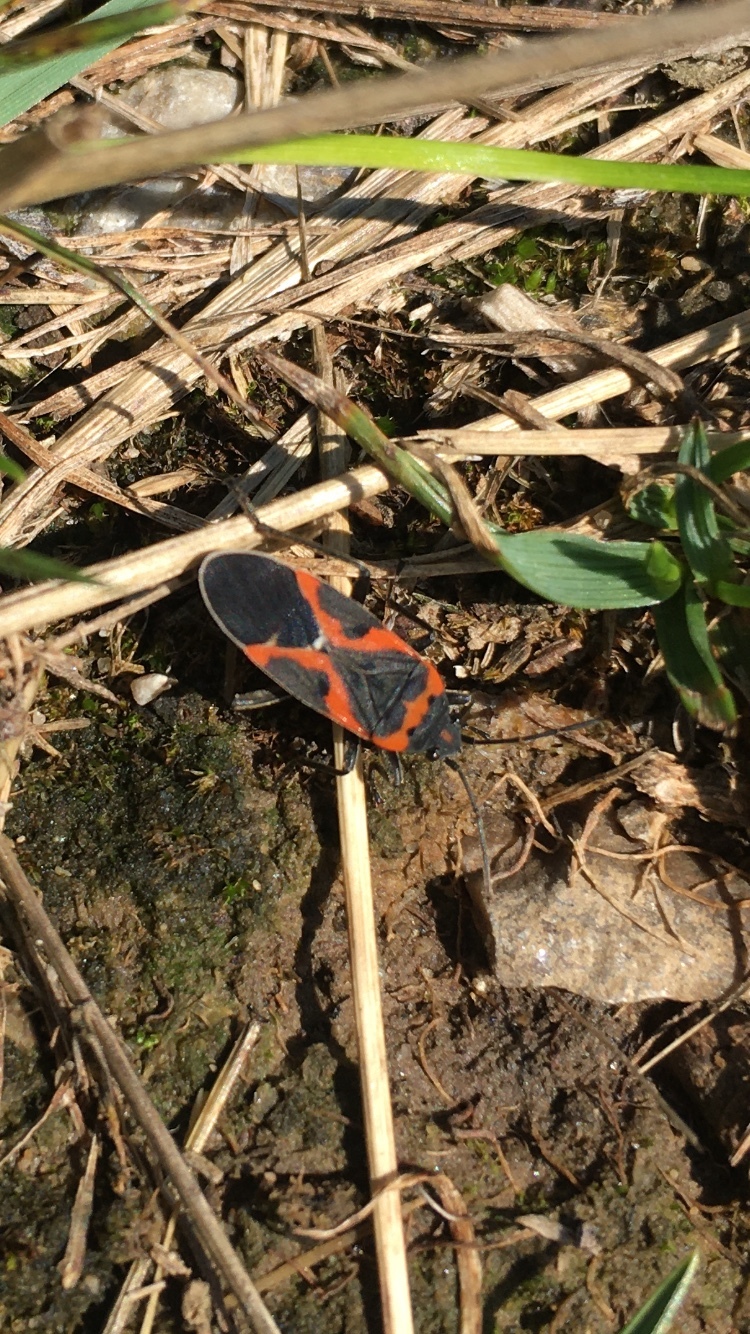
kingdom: Animalia
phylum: Arthropoda
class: Insecta
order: Hemiptera
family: Lygaeidae
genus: Lygaeus
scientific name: Lygaeus kalmii
